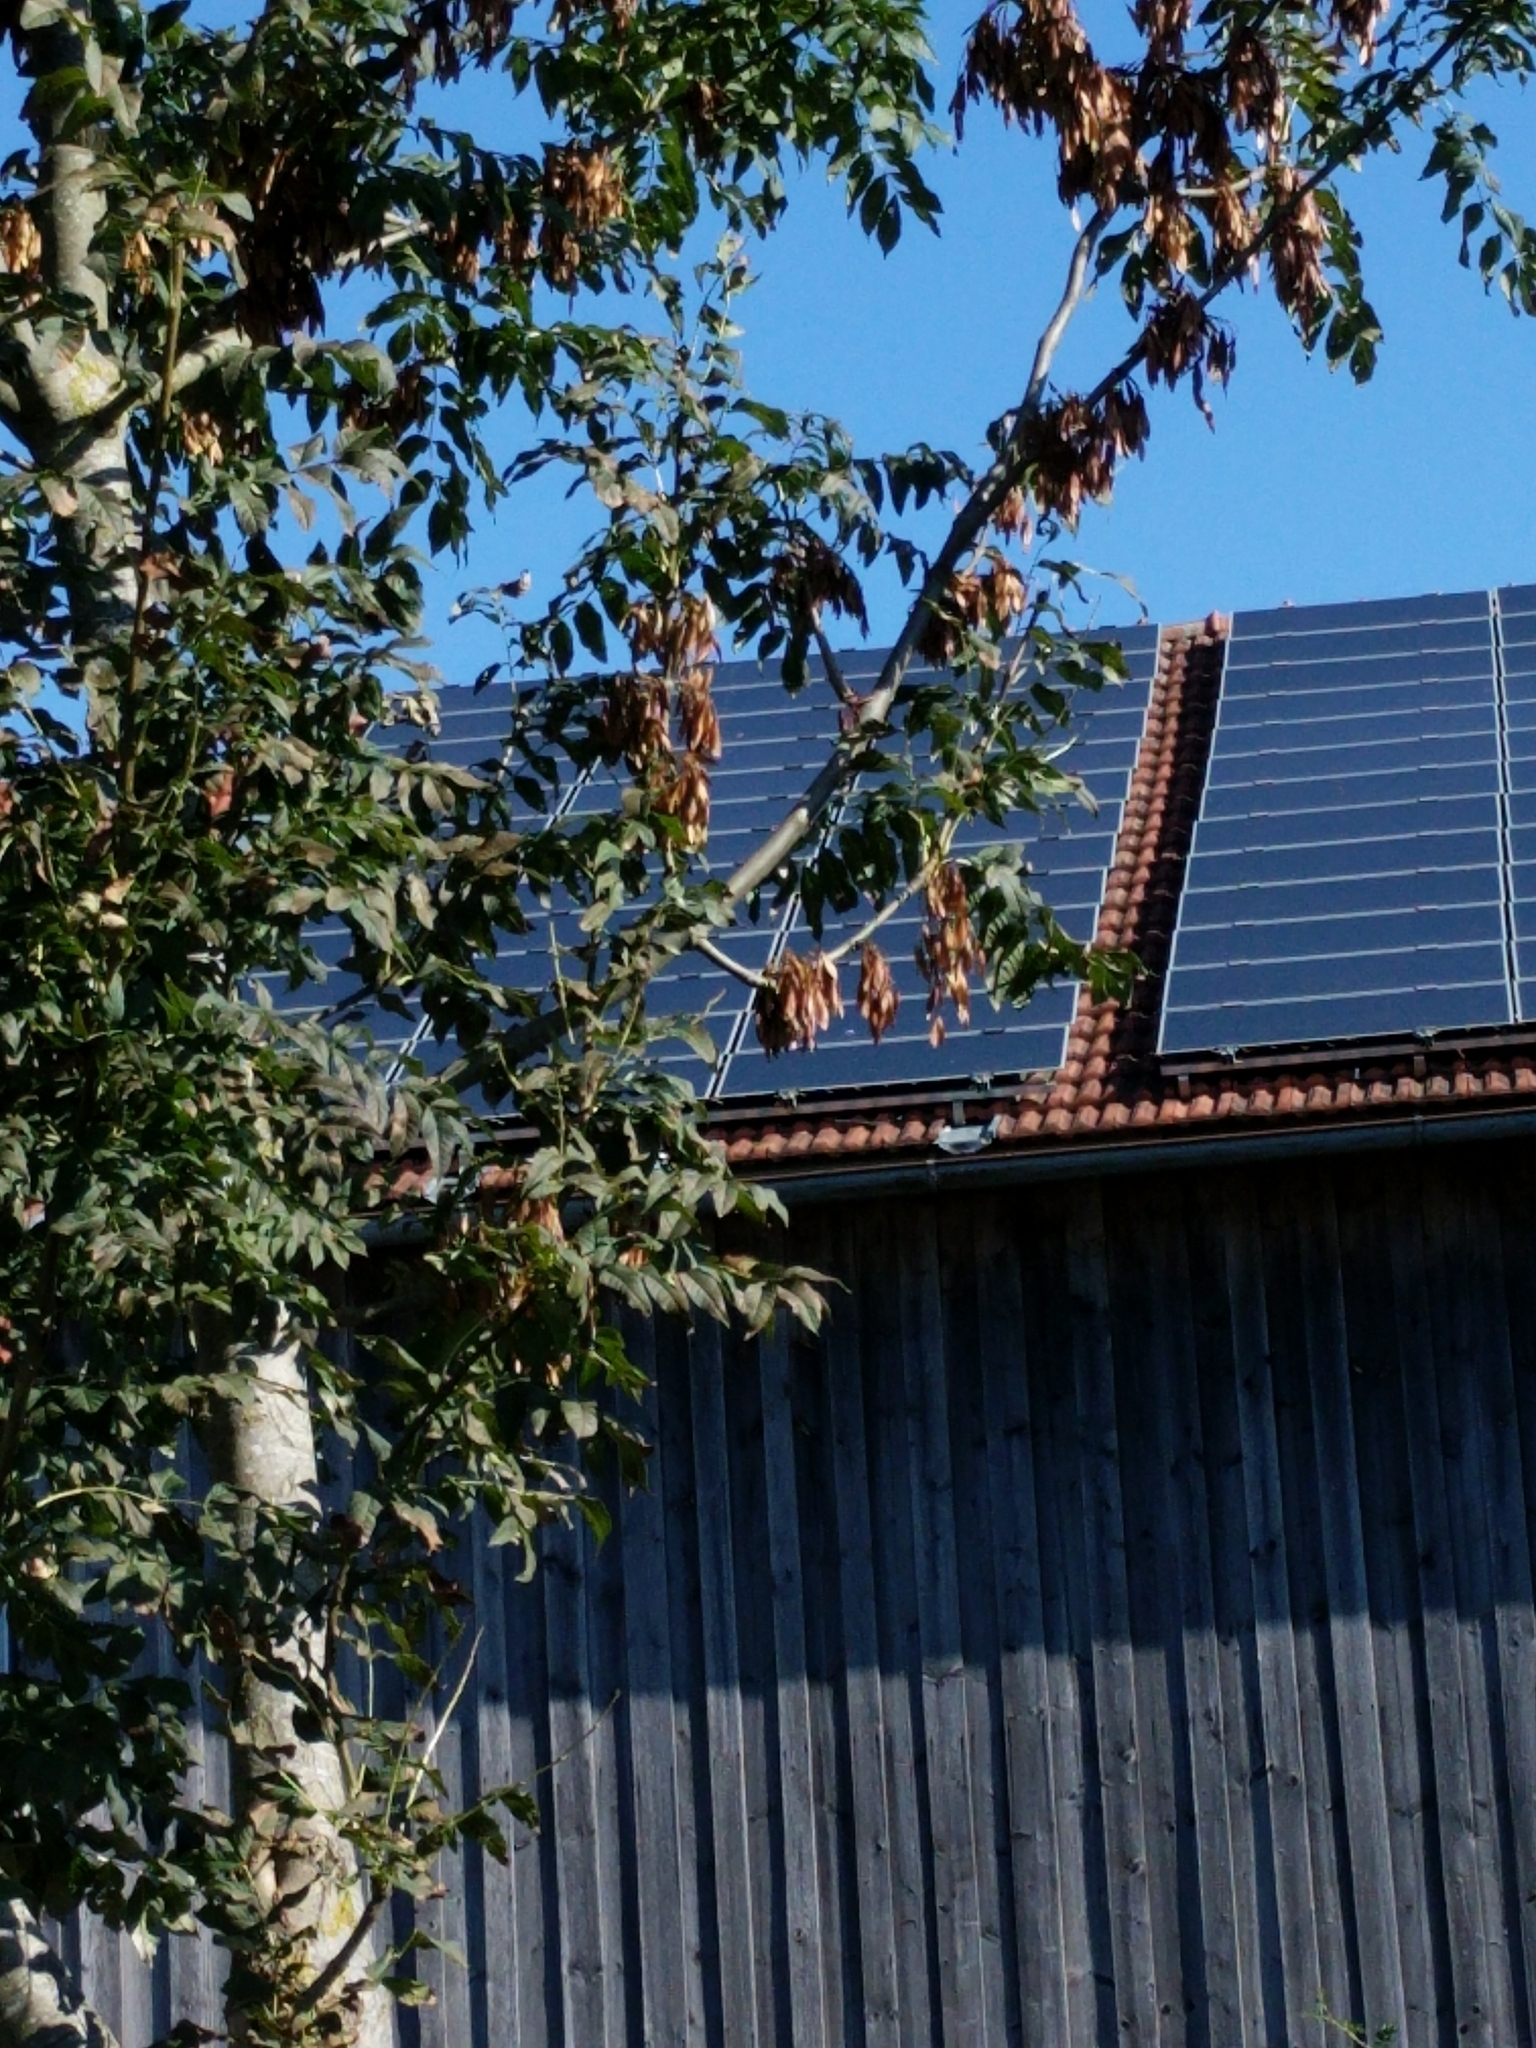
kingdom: Plantae
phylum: Tracheophyta
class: Magnoliopsida
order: Lamiales
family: Oleaceae
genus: Fraxinus
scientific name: Fraxinus excelsior
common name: European ash
